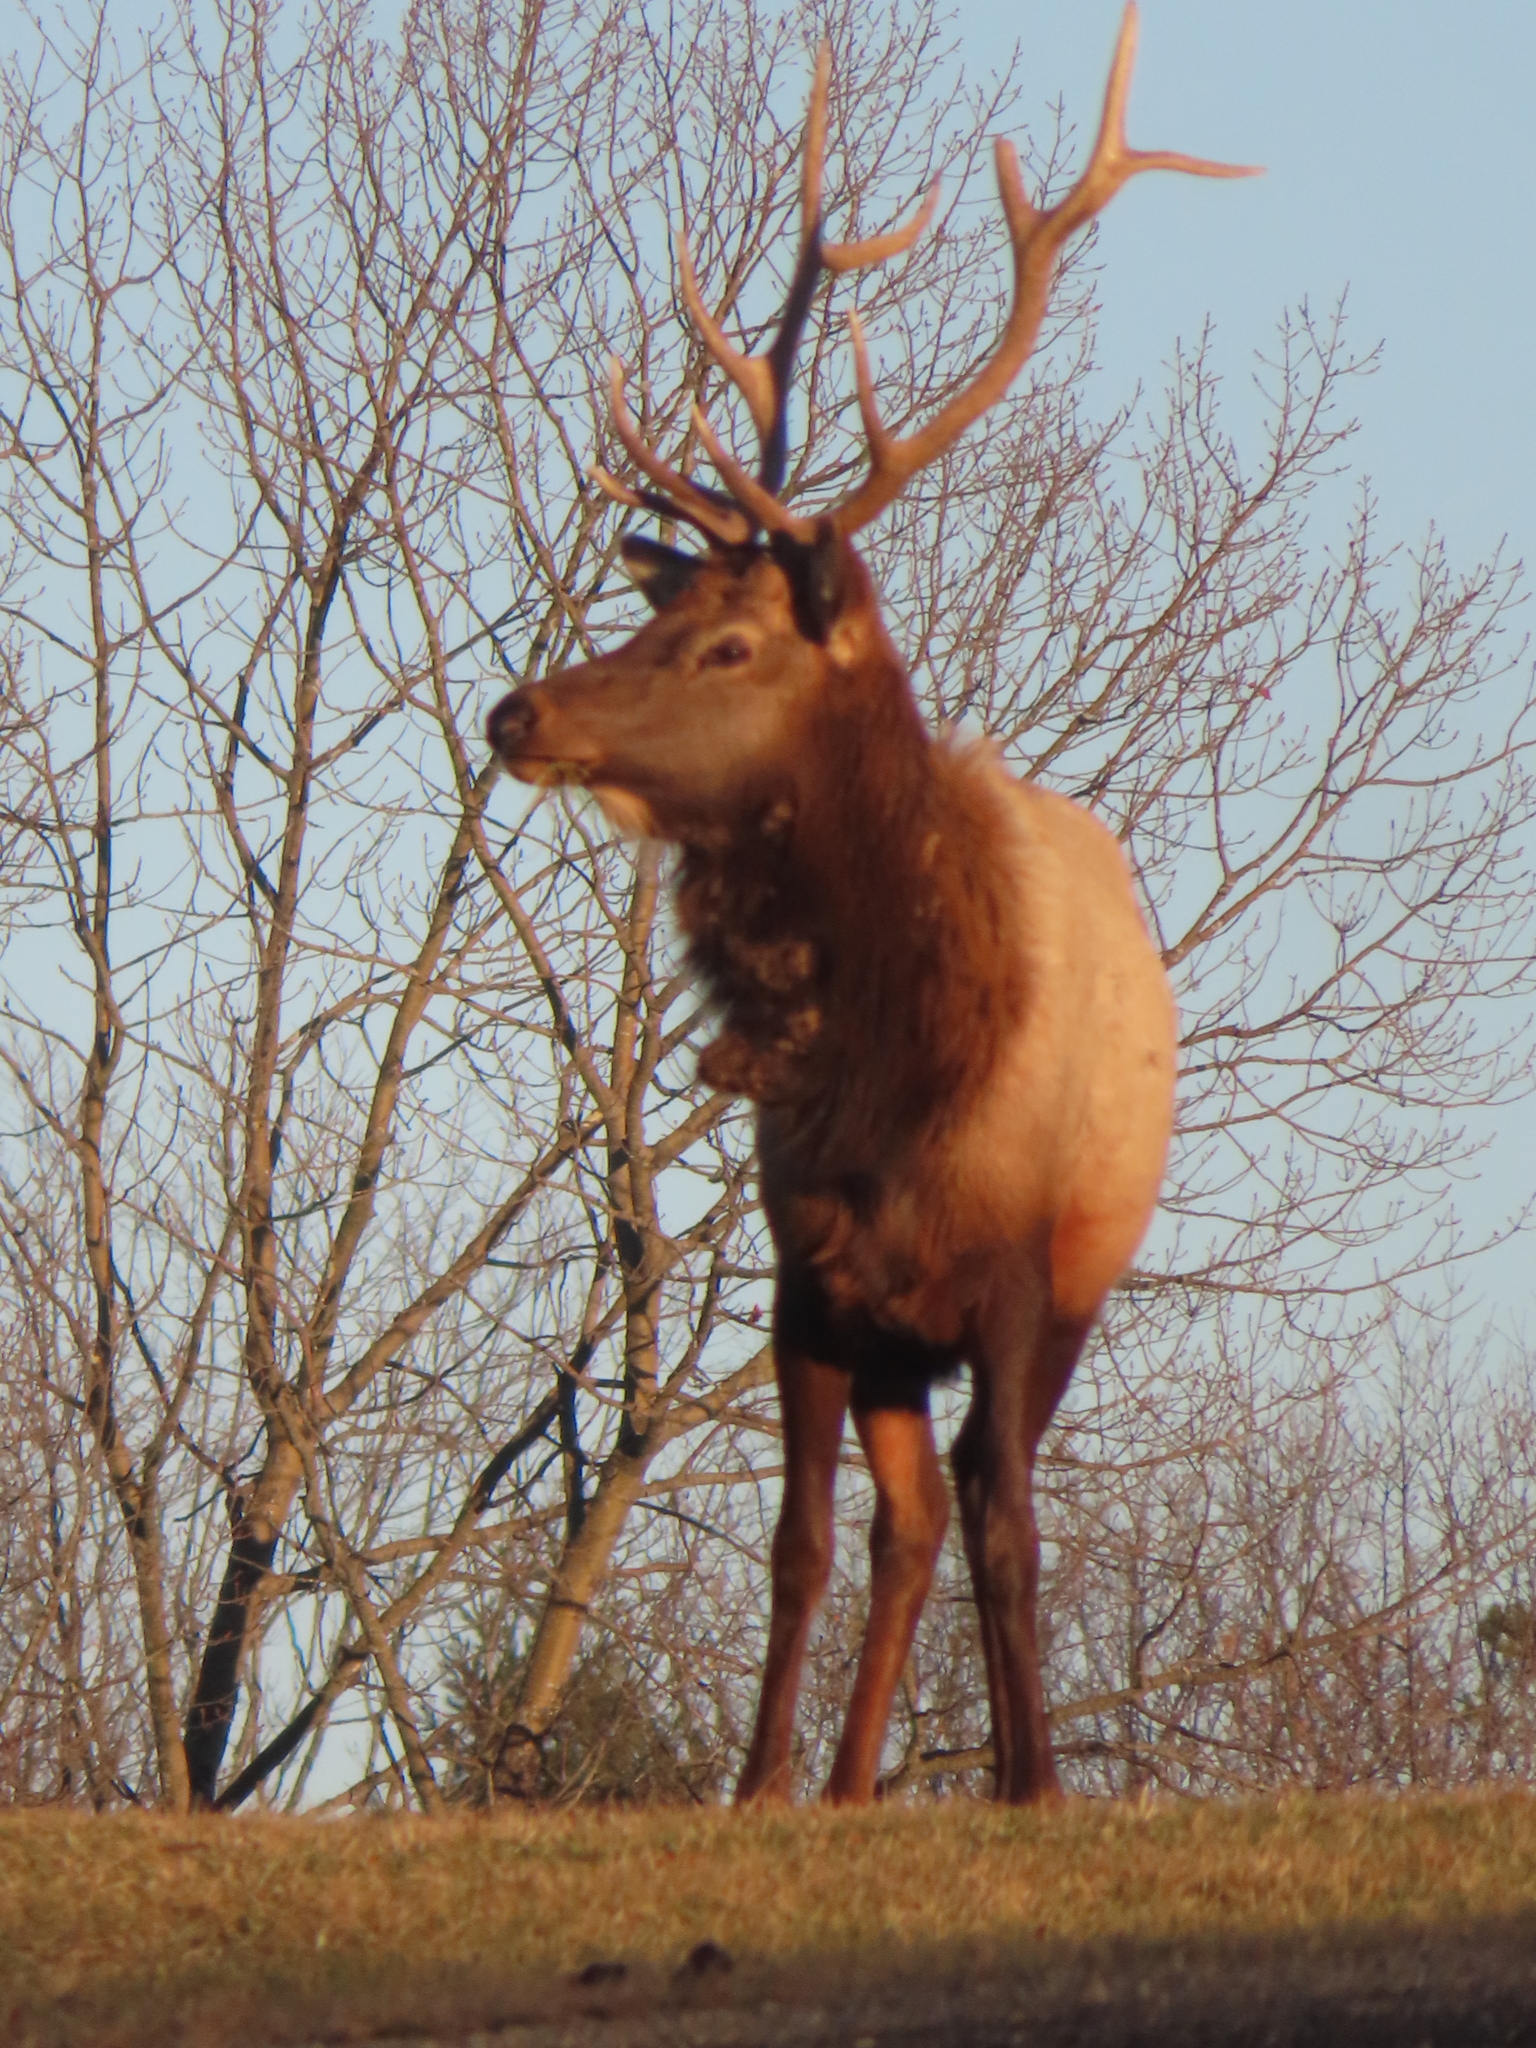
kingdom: Animalia
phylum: Chordata
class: Mammalia
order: Artiodactyla
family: Cervidae
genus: Cervus
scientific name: Cervus elaphus
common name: Red deer
